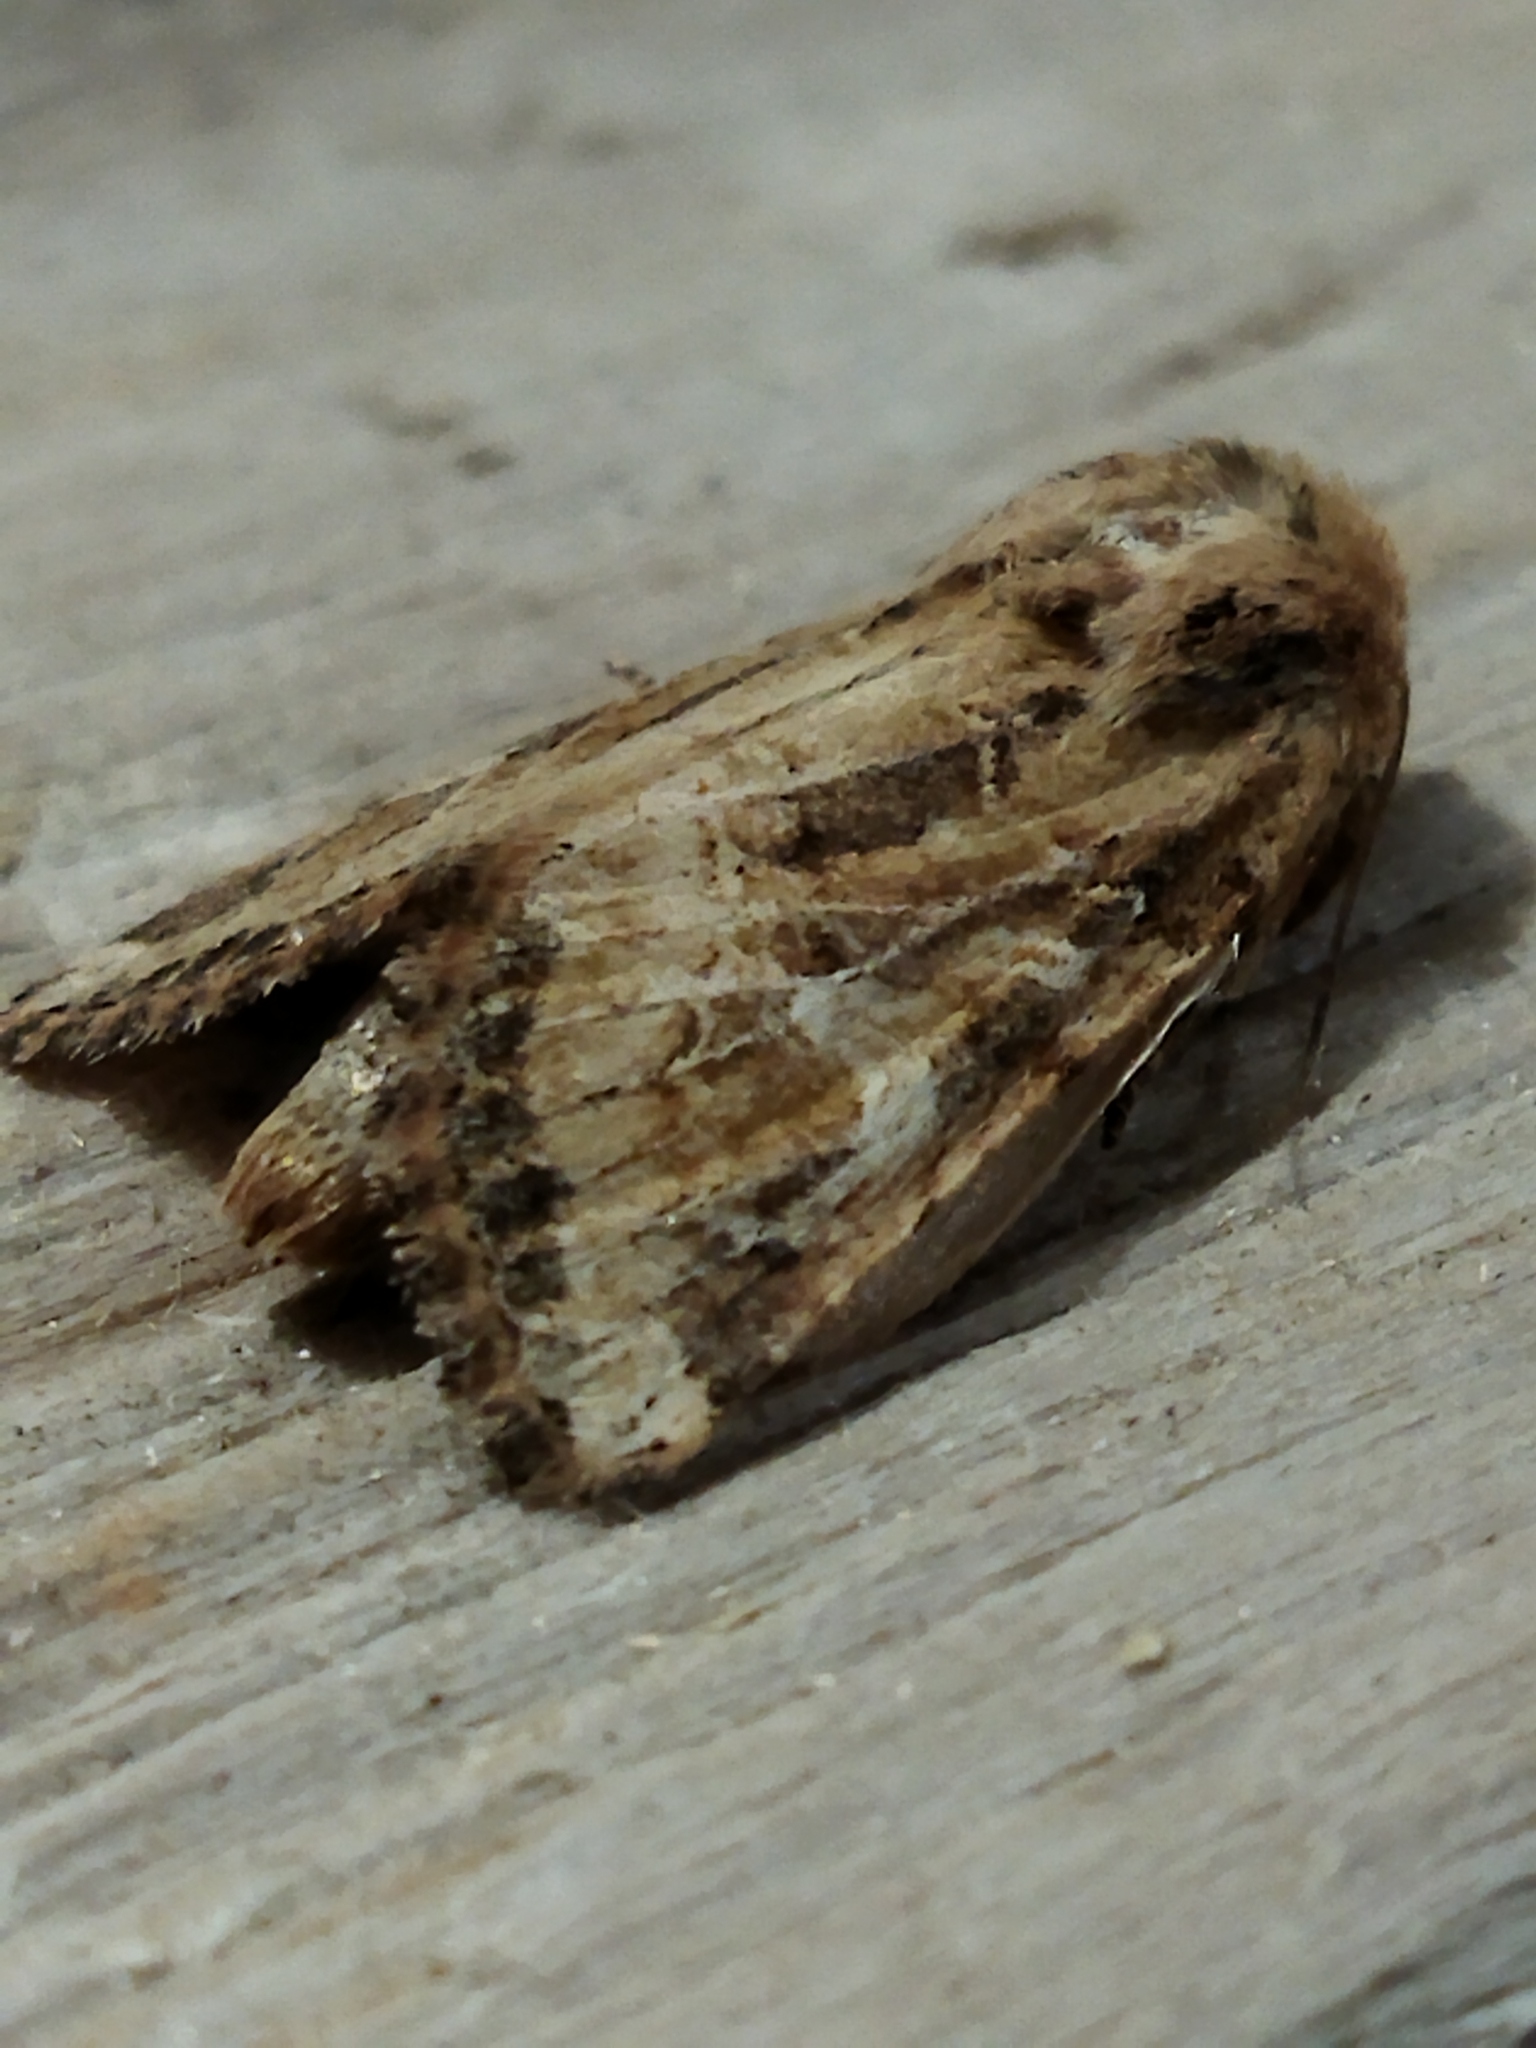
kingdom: Animalia
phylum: Arthropoda
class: Insecta
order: Lepidoptera
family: Noctuidae
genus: Luperina
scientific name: Luperina dumerilii
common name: Dumeril's rustic
